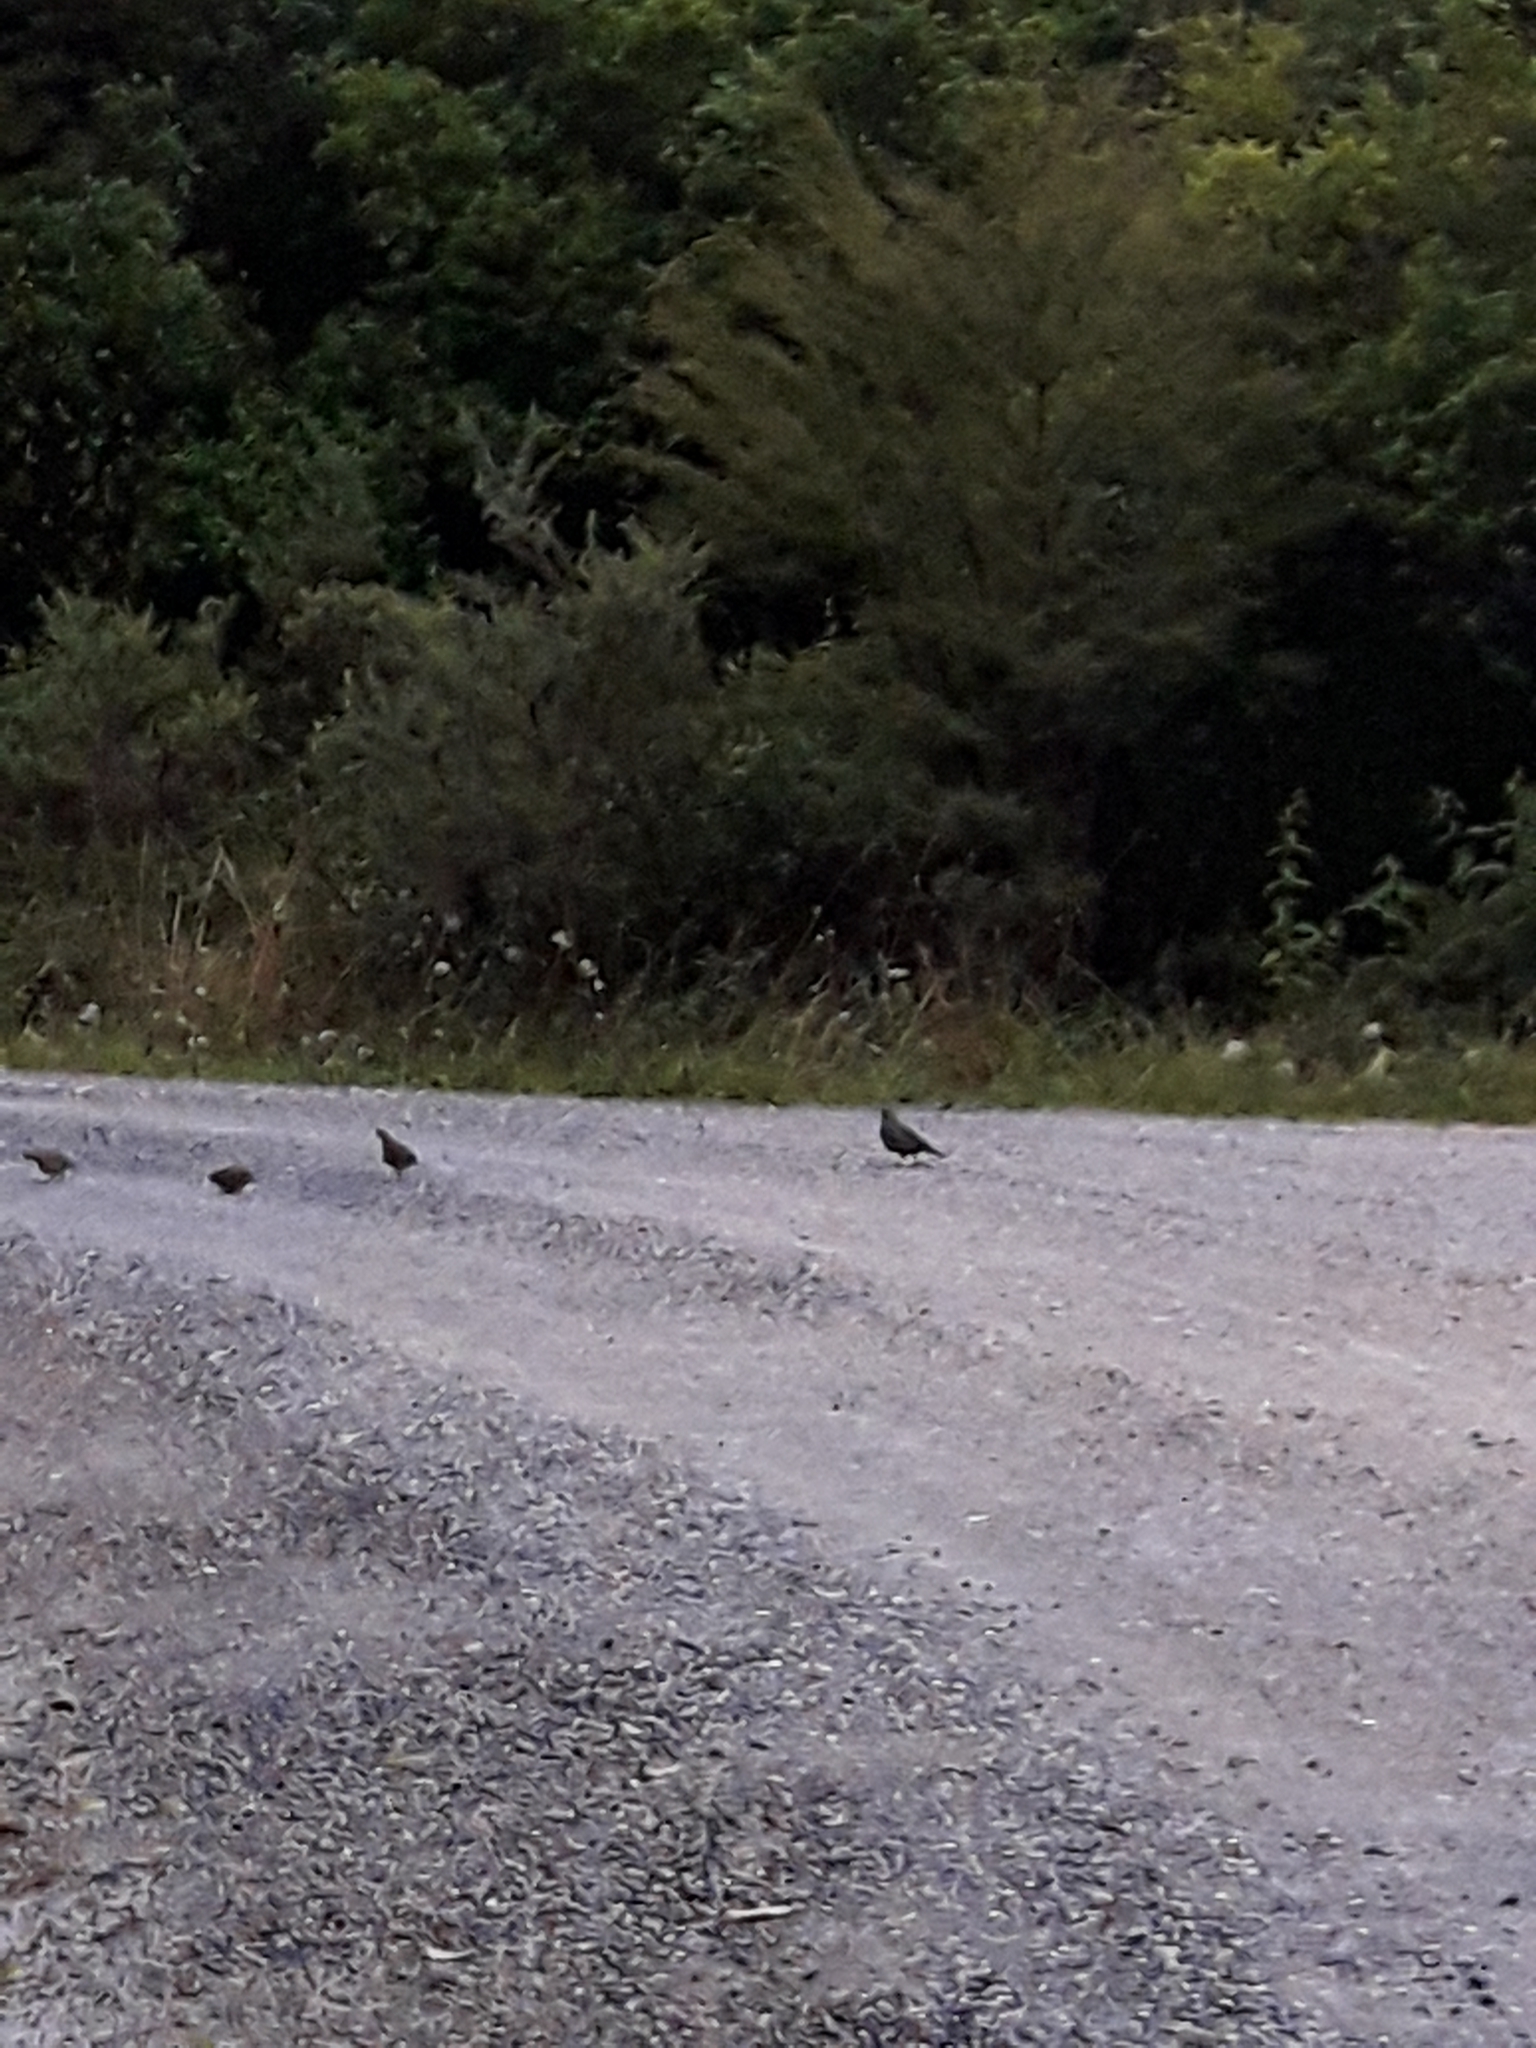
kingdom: Animalia
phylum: Chordata
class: Aves
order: Galliformes
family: Odontophoridae
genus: Callipepla
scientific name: Callipepla californica
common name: California quail
